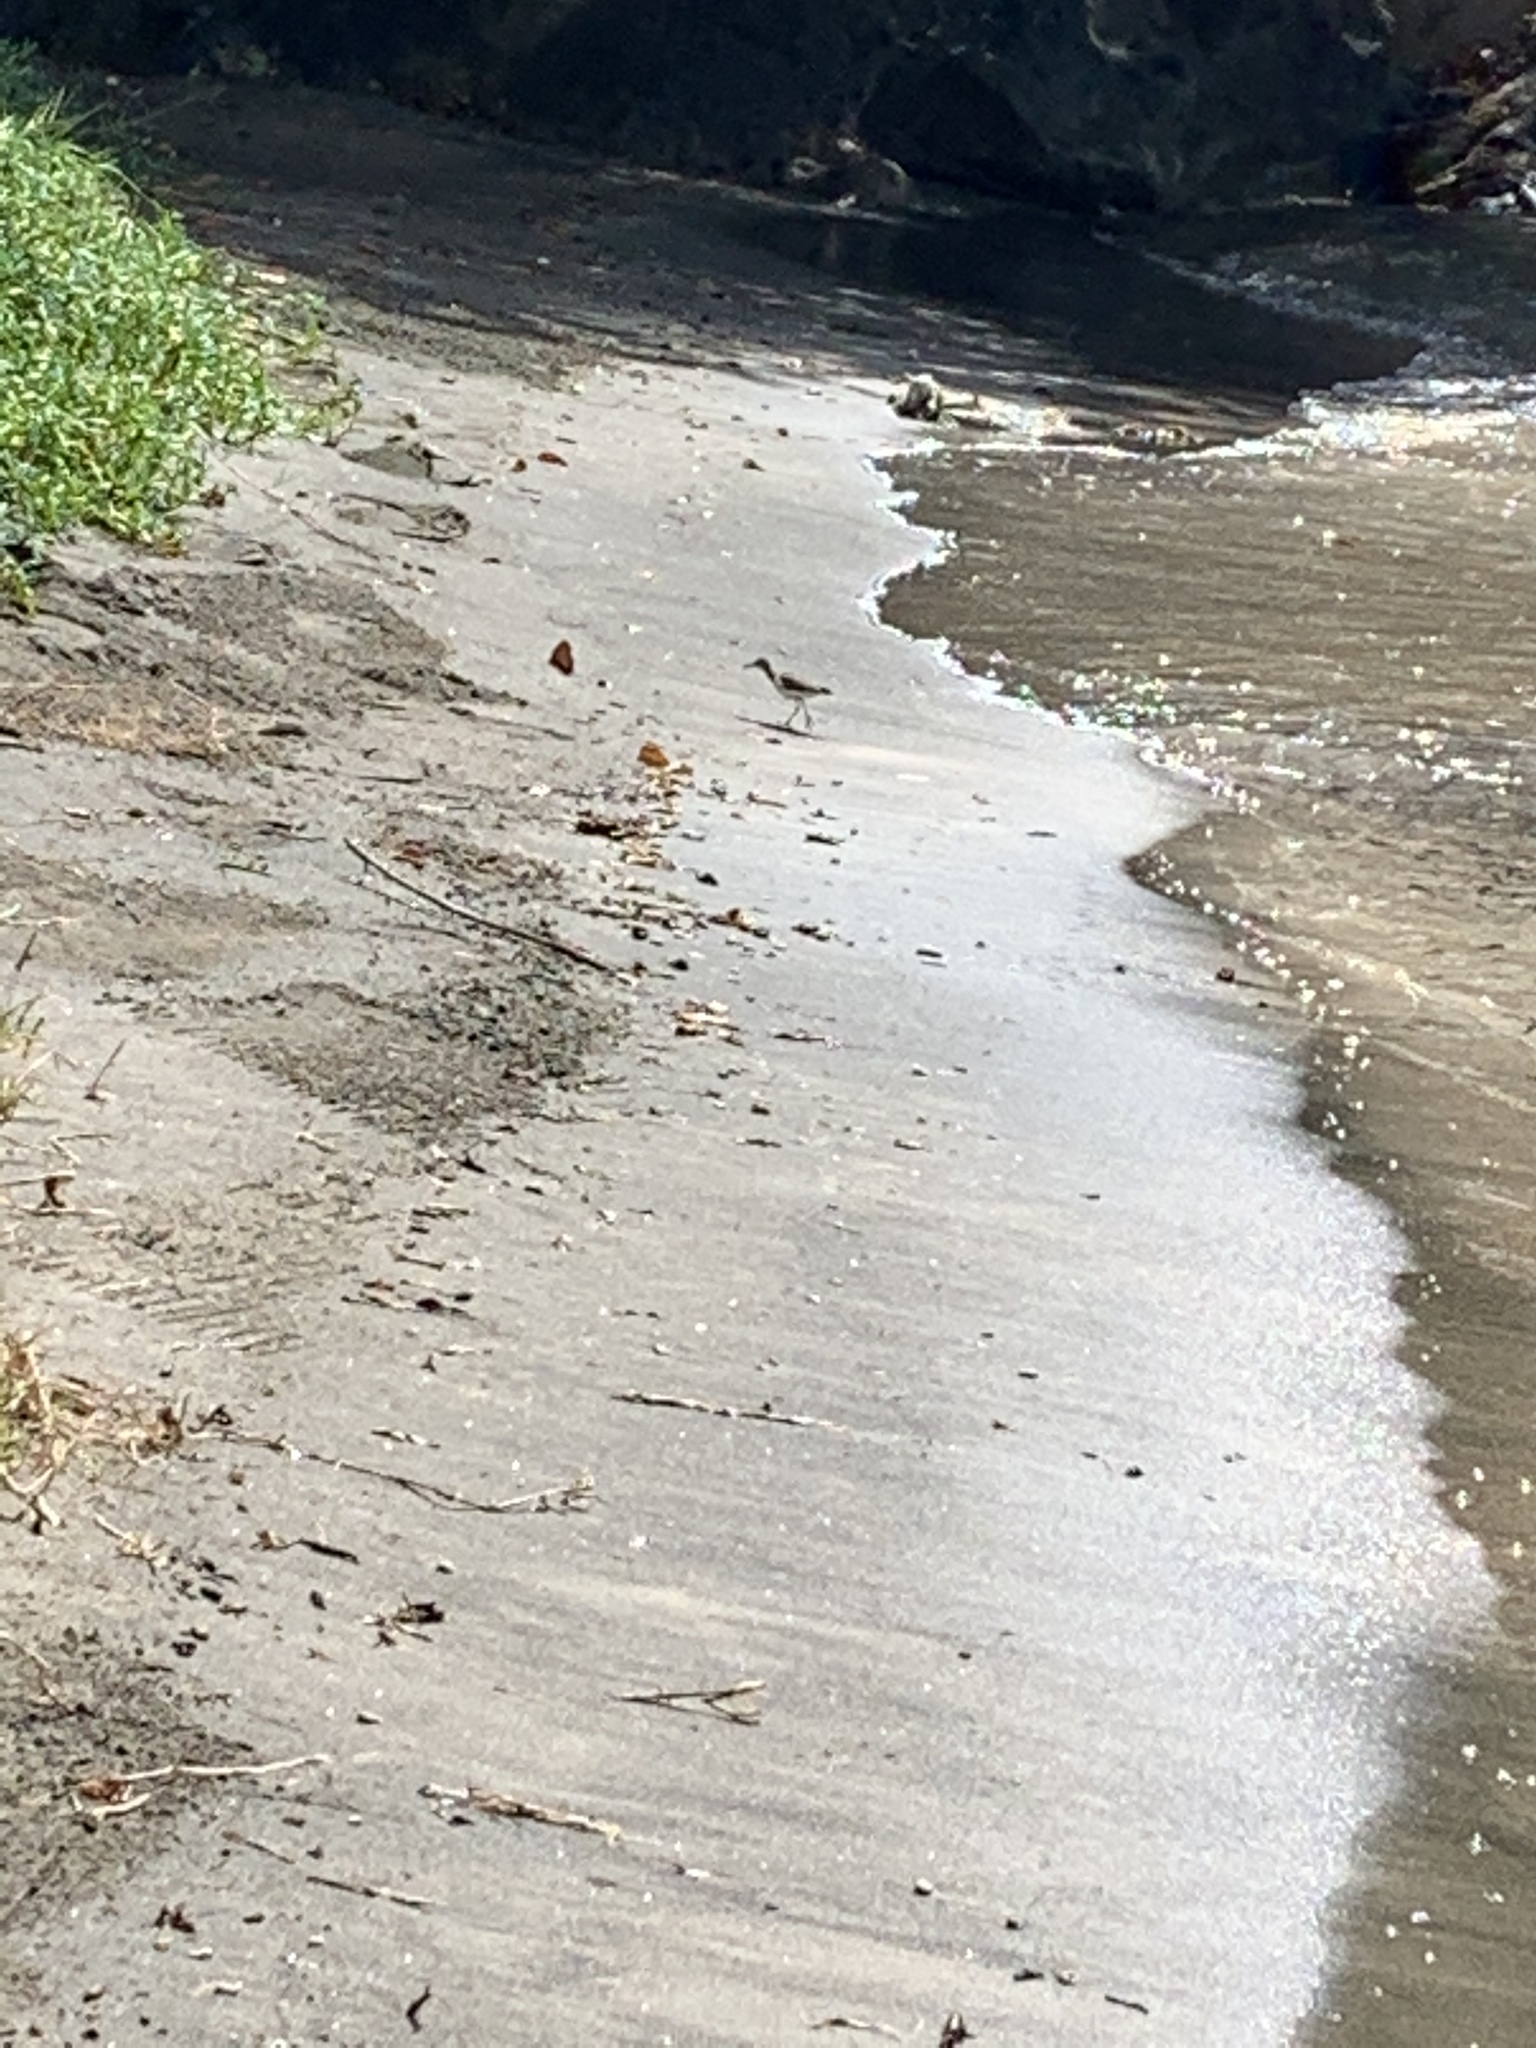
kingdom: Animalia
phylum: Chordata
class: Aves
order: Charadriiformes
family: Scolopacidae
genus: Actitis
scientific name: Actitis macularius
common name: Spotted sandpiper
